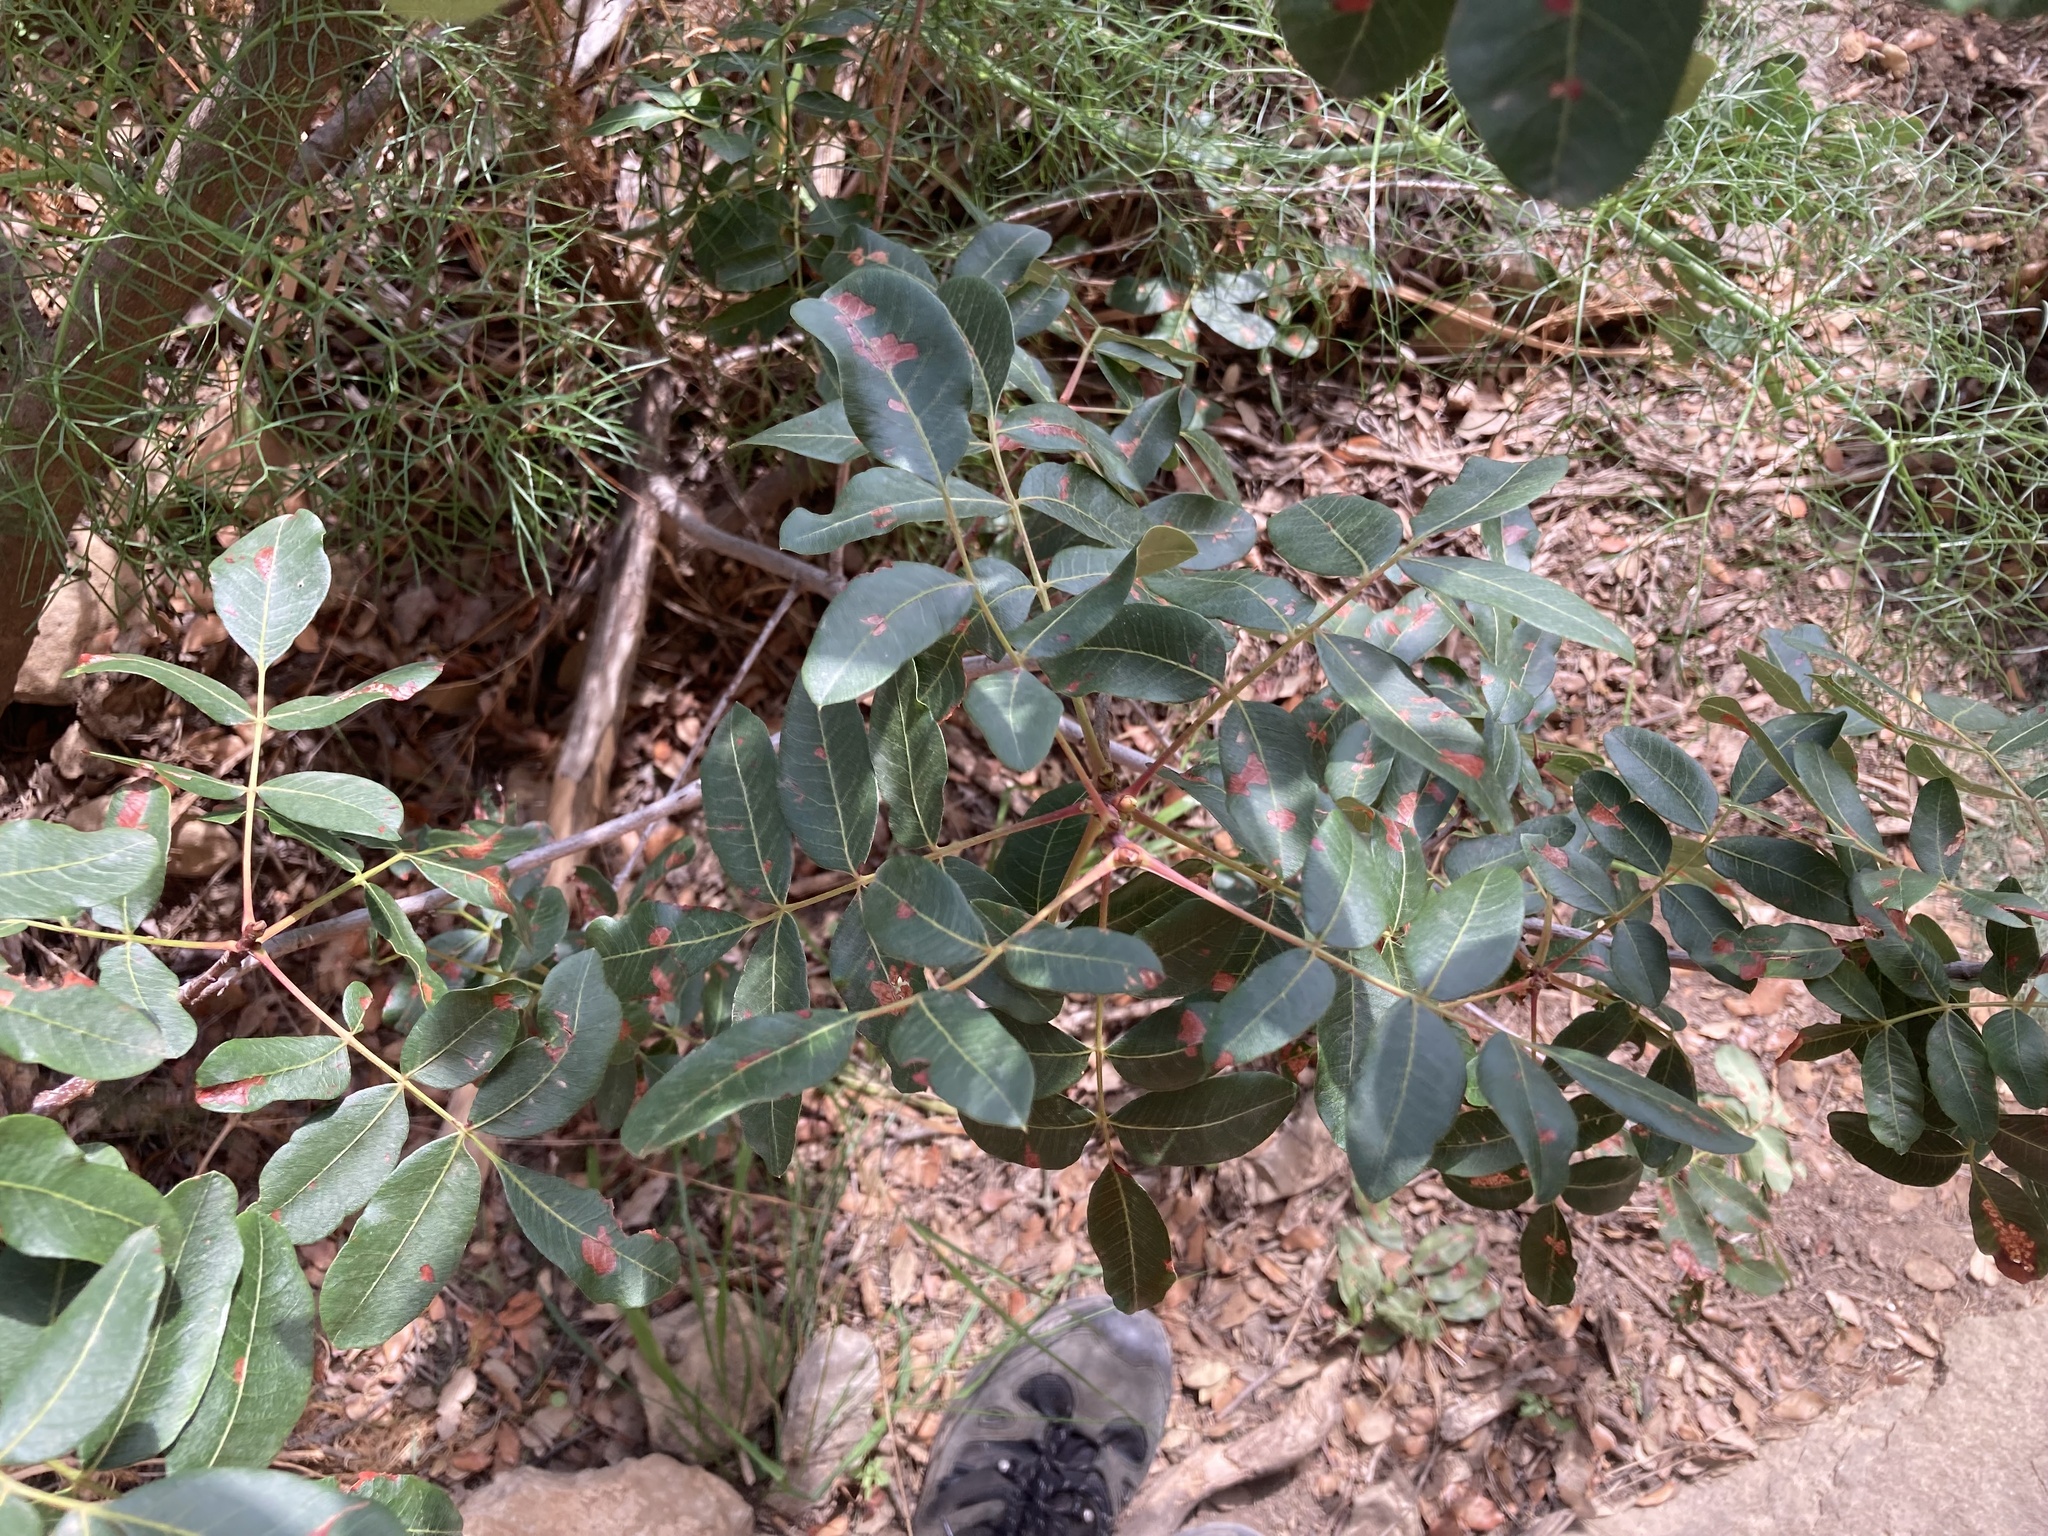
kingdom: Plantae
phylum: Tracheophyta
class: Magnoliopsida
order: Sapindales
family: Anacardiaceae
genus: Pistacia
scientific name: Pistacia terebinthus
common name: Terebinth
